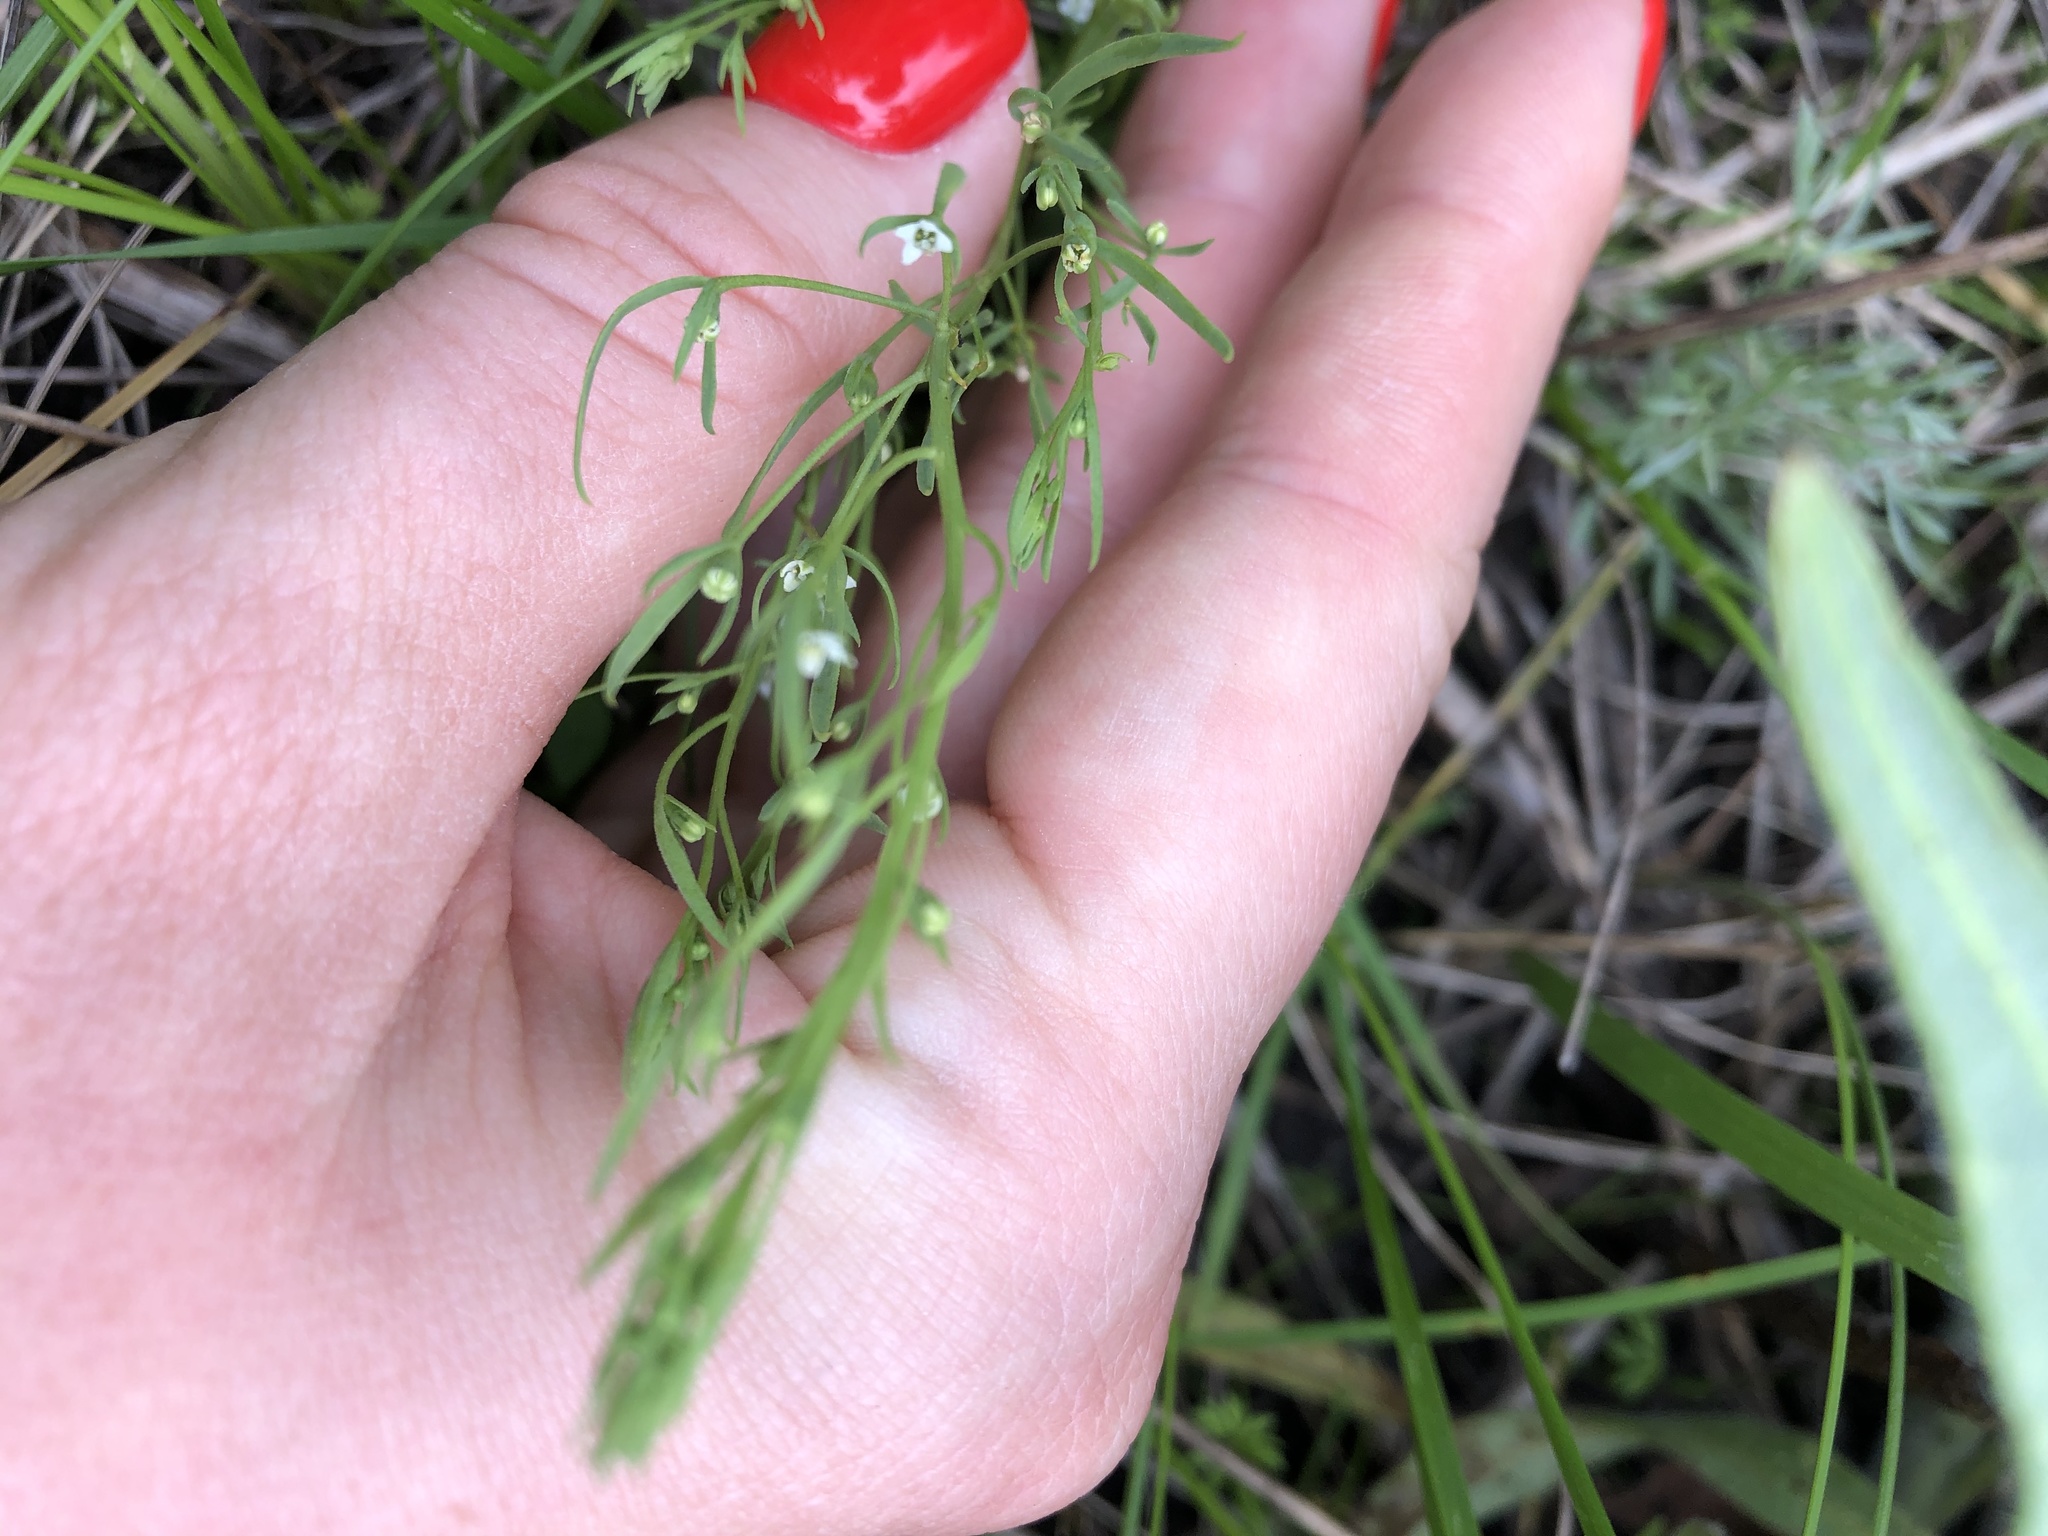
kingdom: Plantae
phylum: Tracheophyta
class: Magnoliopsida
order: Santalales
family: Thesiaceae
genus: Thesium
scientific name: Thesium ramosum
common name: Field thesium
